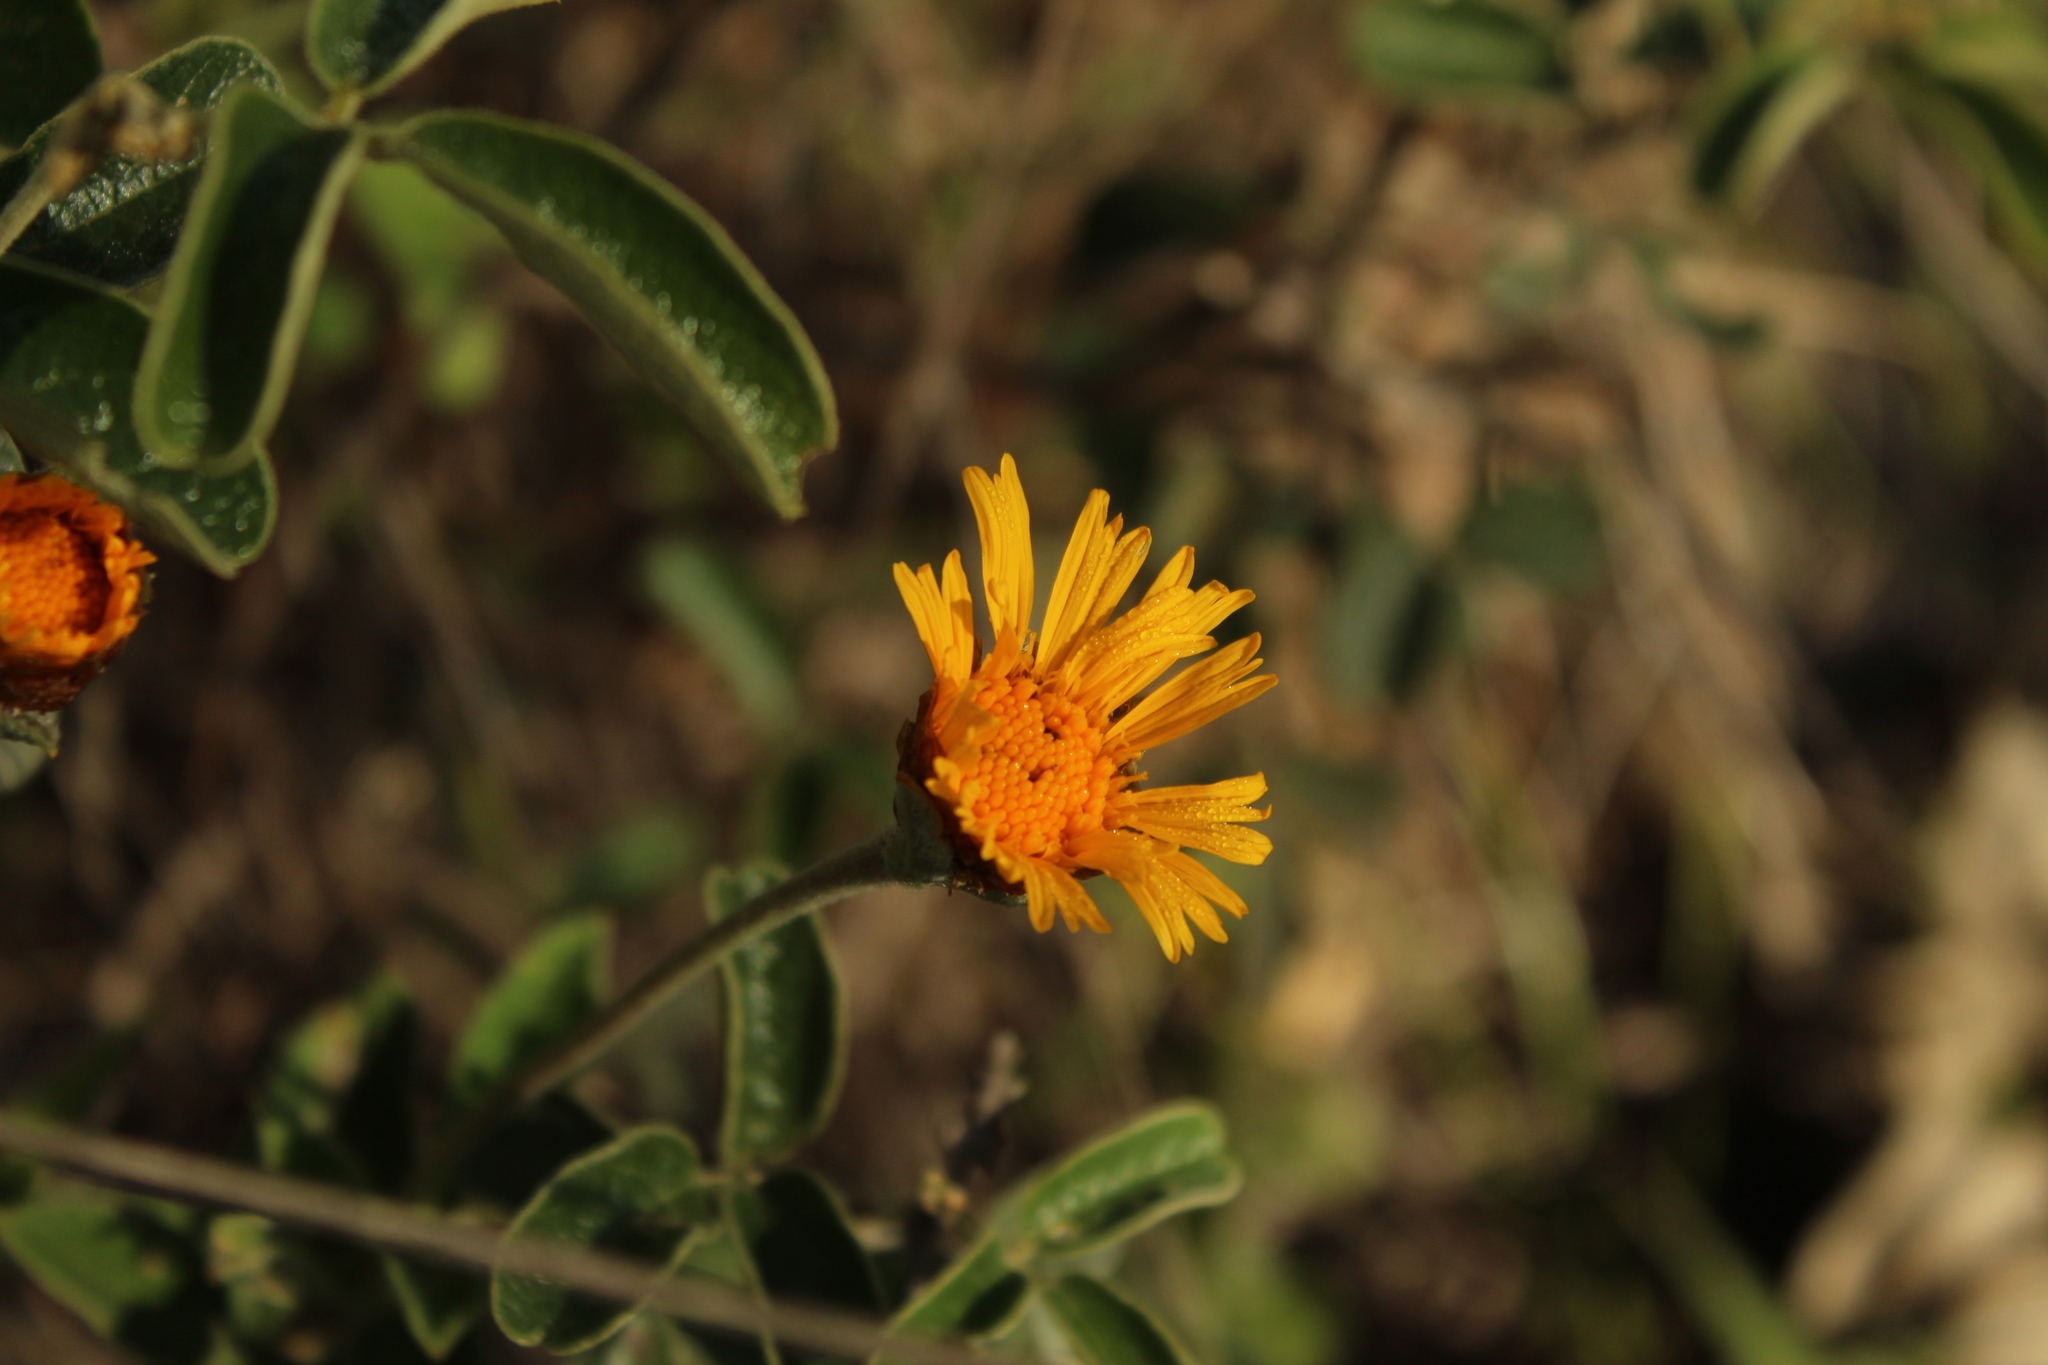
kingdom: Plantae
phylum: Tracheophyta
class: Magnoliopsida
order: Asterales
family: Asteraceae
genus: Calea
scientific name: Calea peruviana
